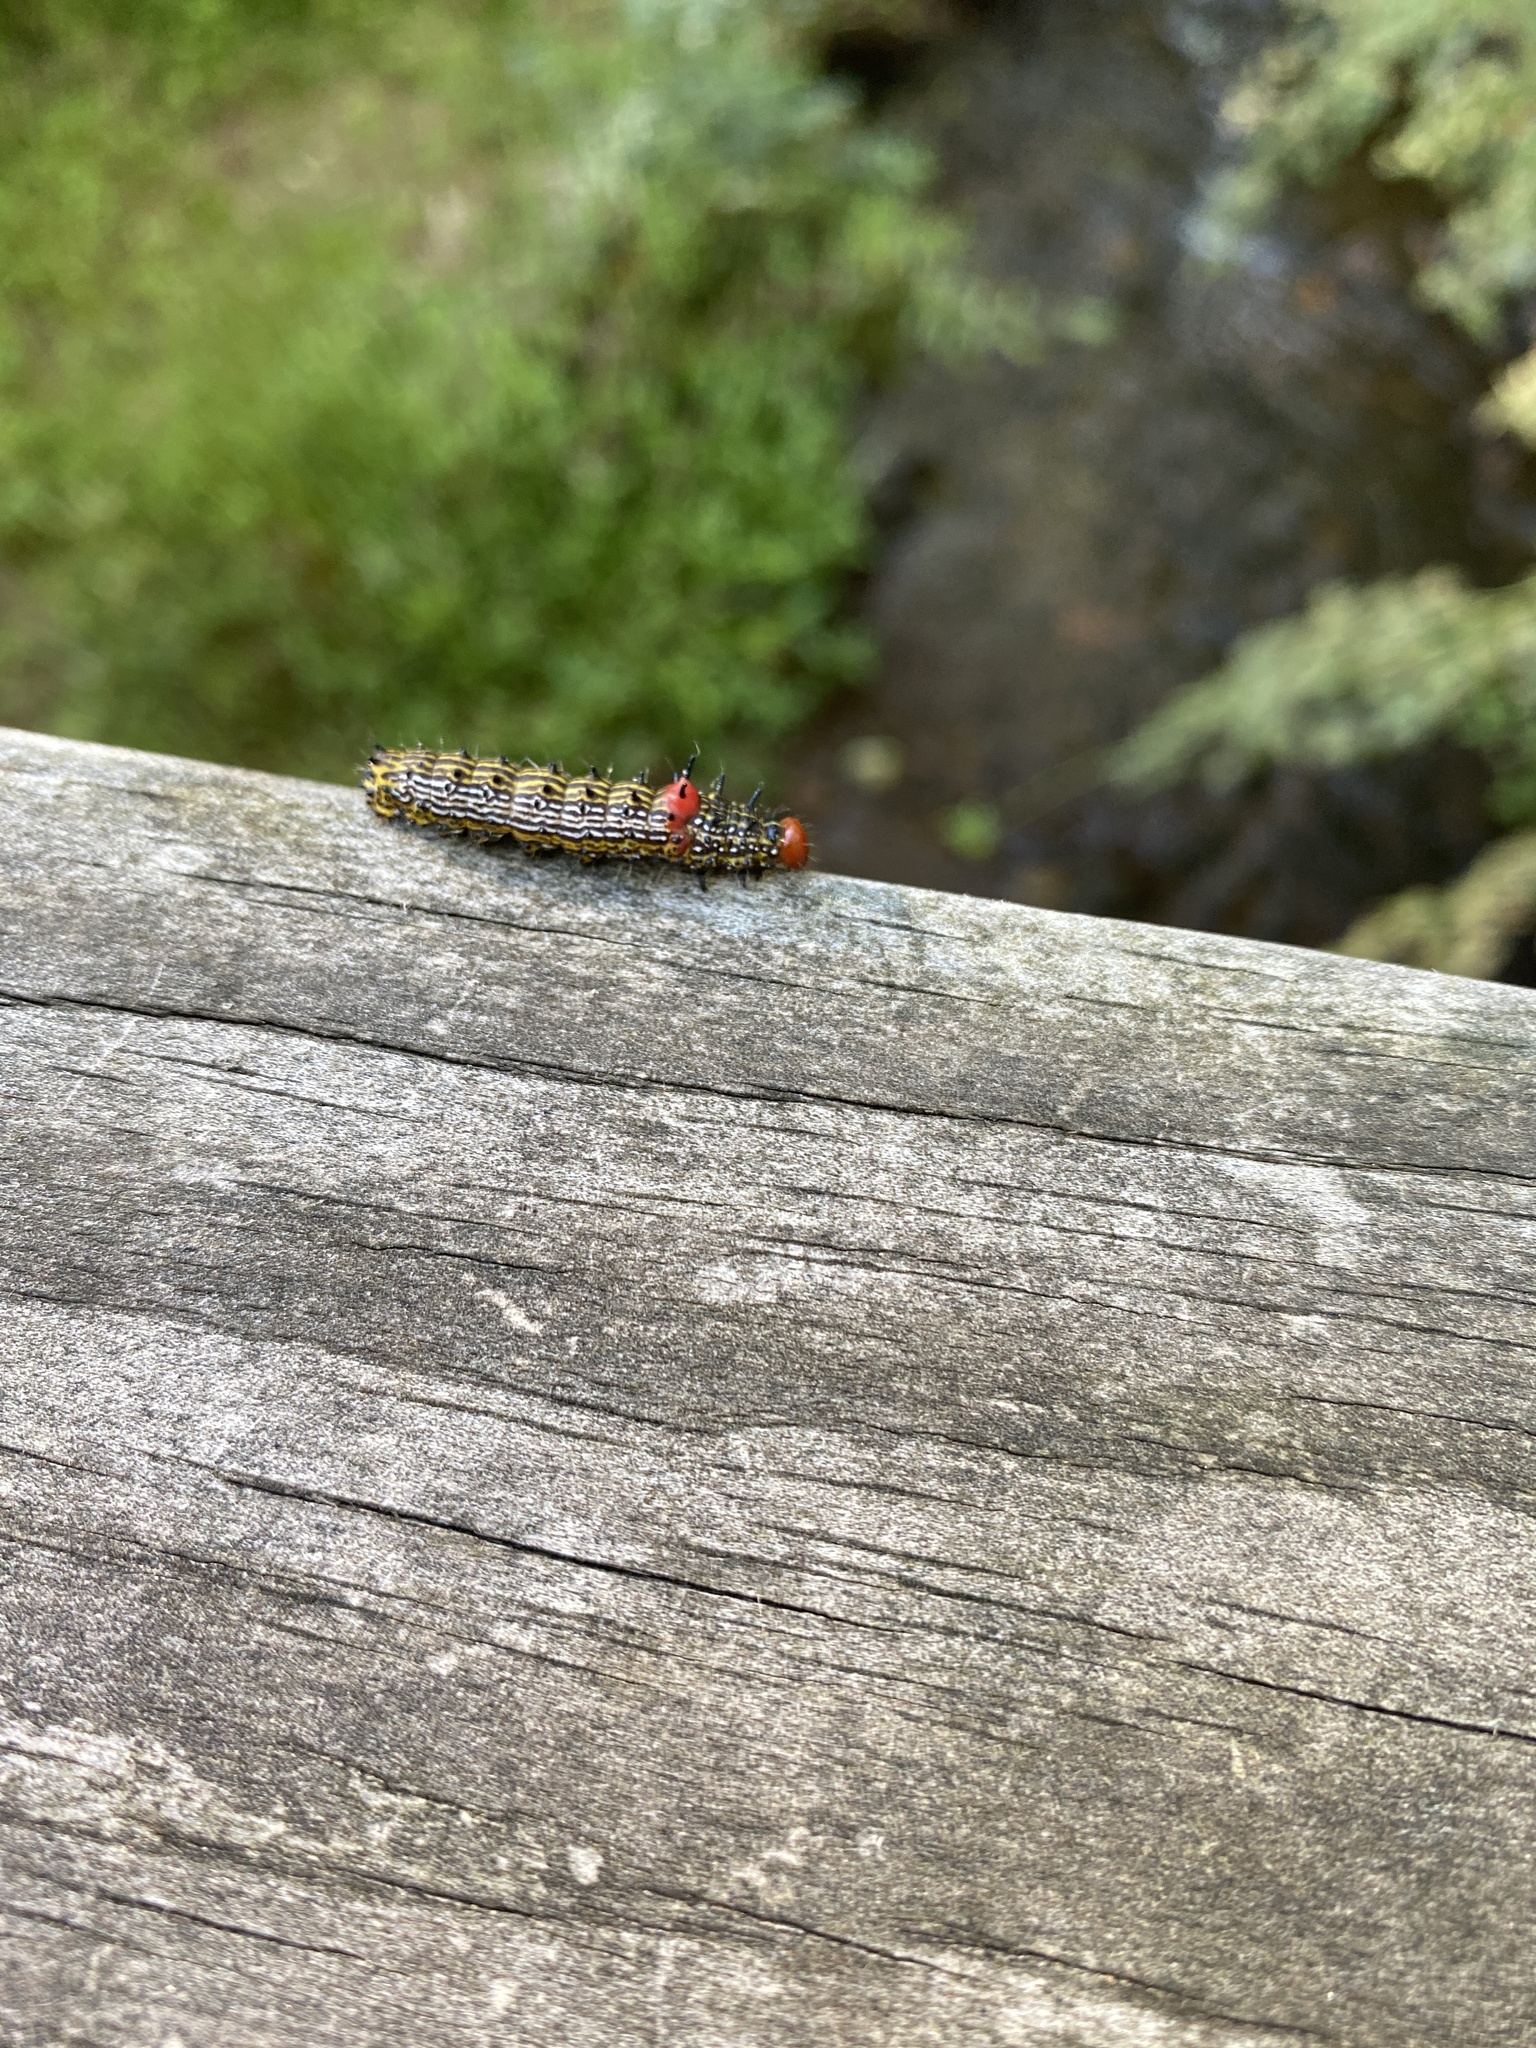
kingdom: Animalia
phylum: Arthropoda
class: Insecta
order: Lepidoptera
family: Notodontidae
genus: Schizura
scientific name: Schizura
